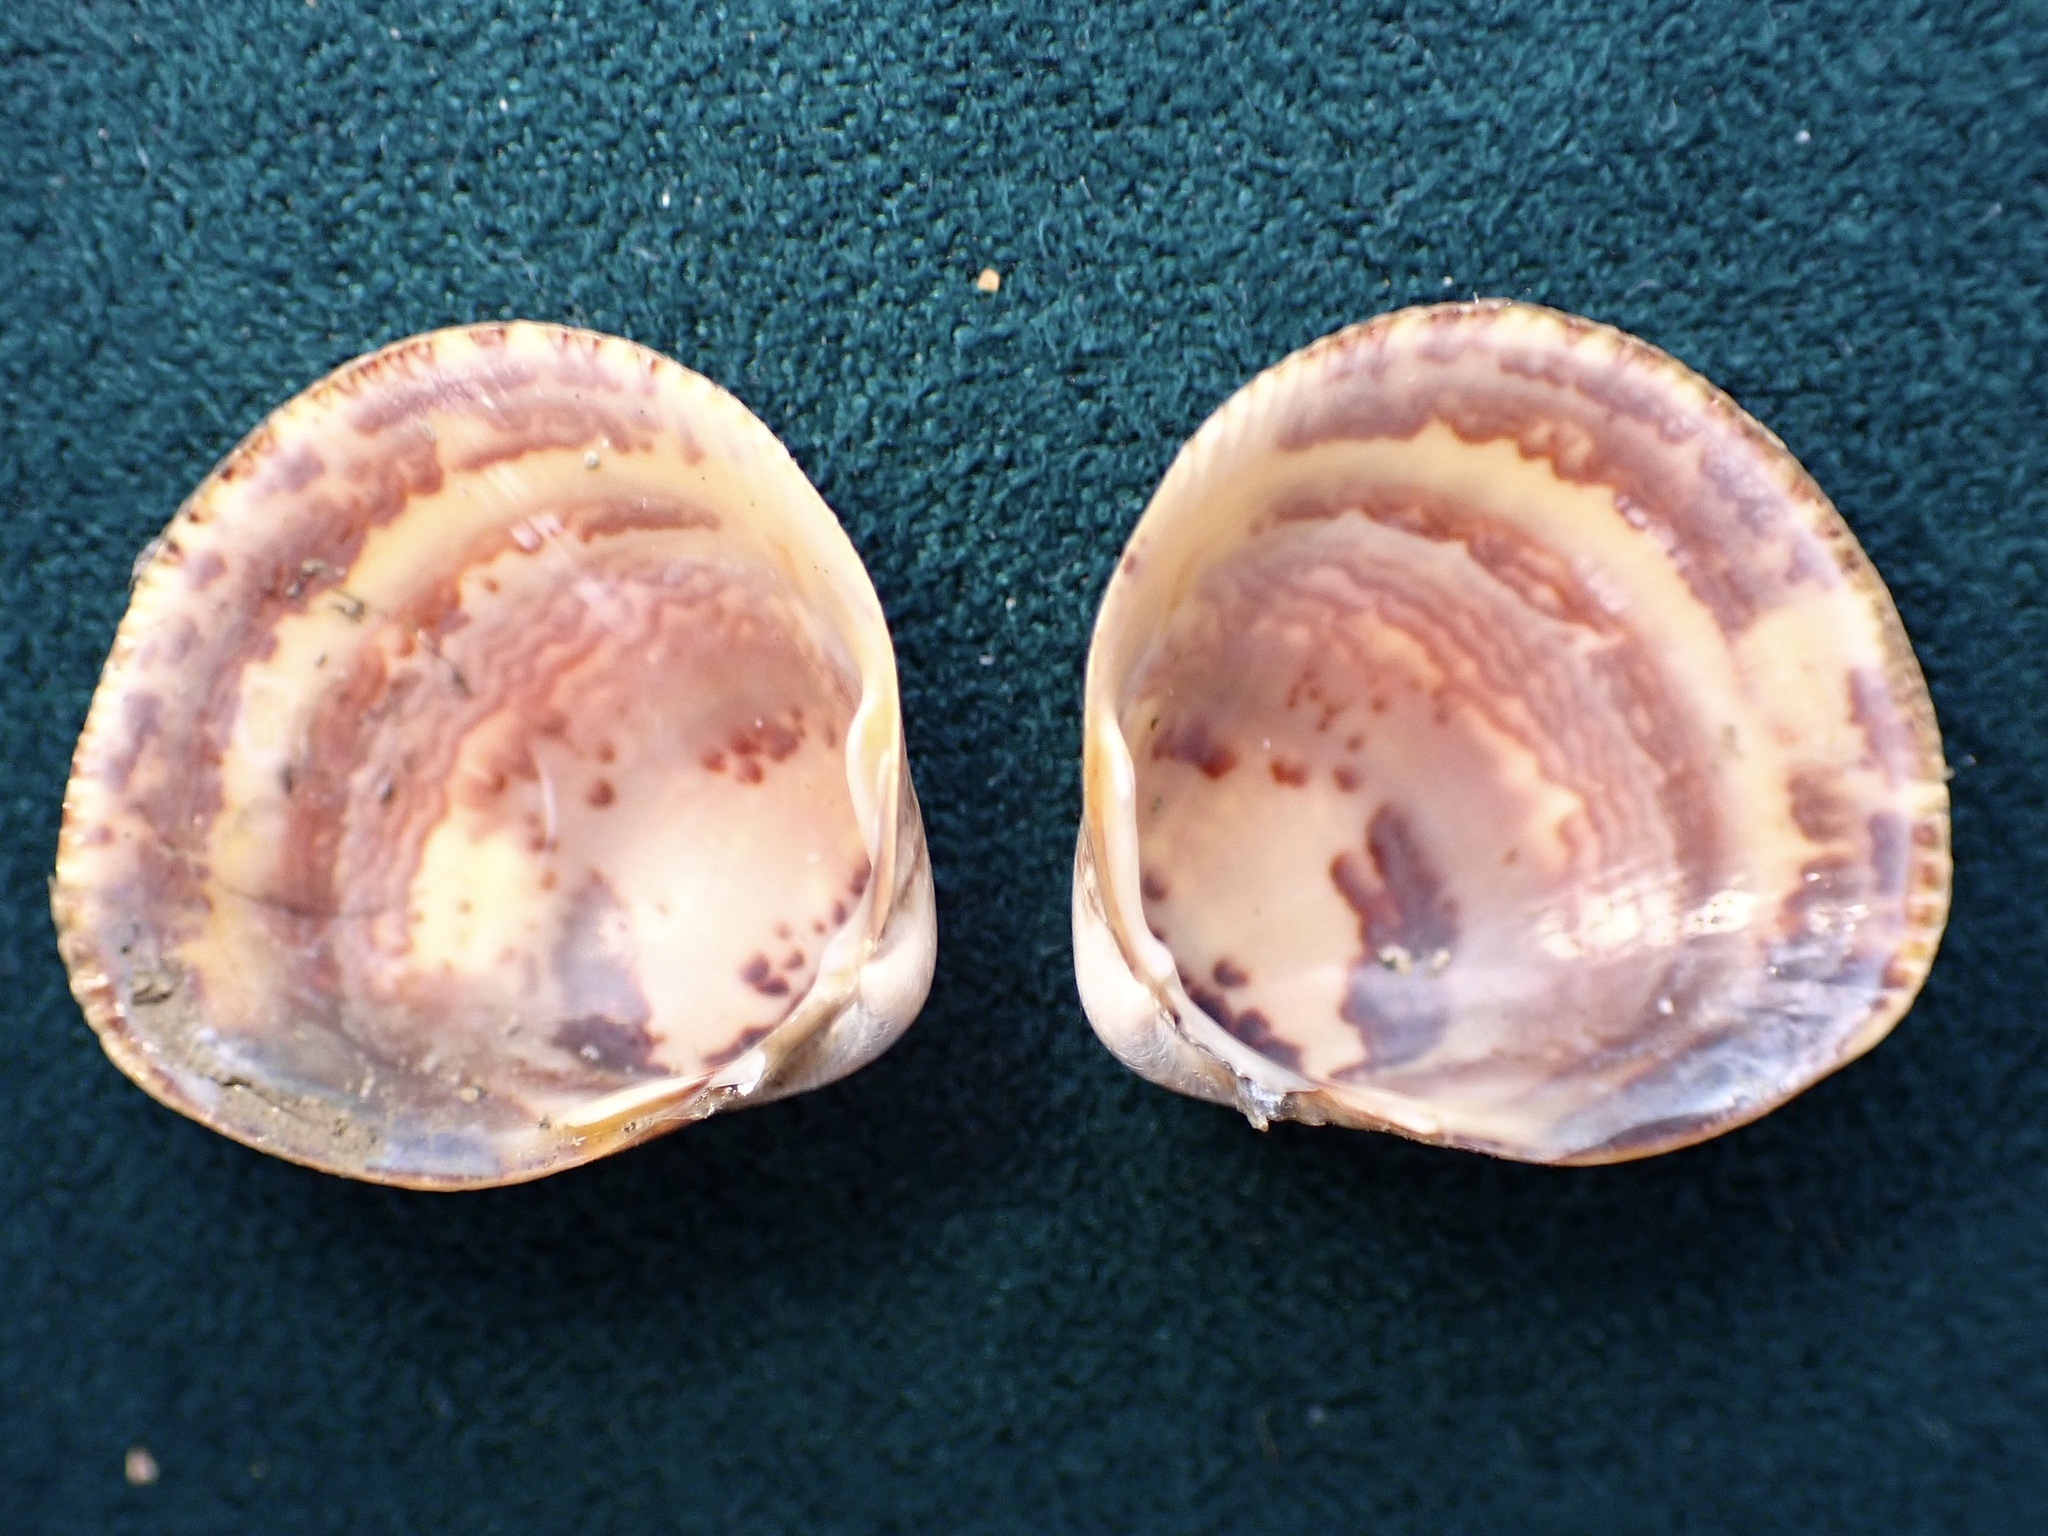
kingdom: Animalia
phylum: Mollusca
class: Bivalvia
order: Cardiida
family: Cardiidae
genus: Laevicardium
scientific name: Laevicardium substriatum
